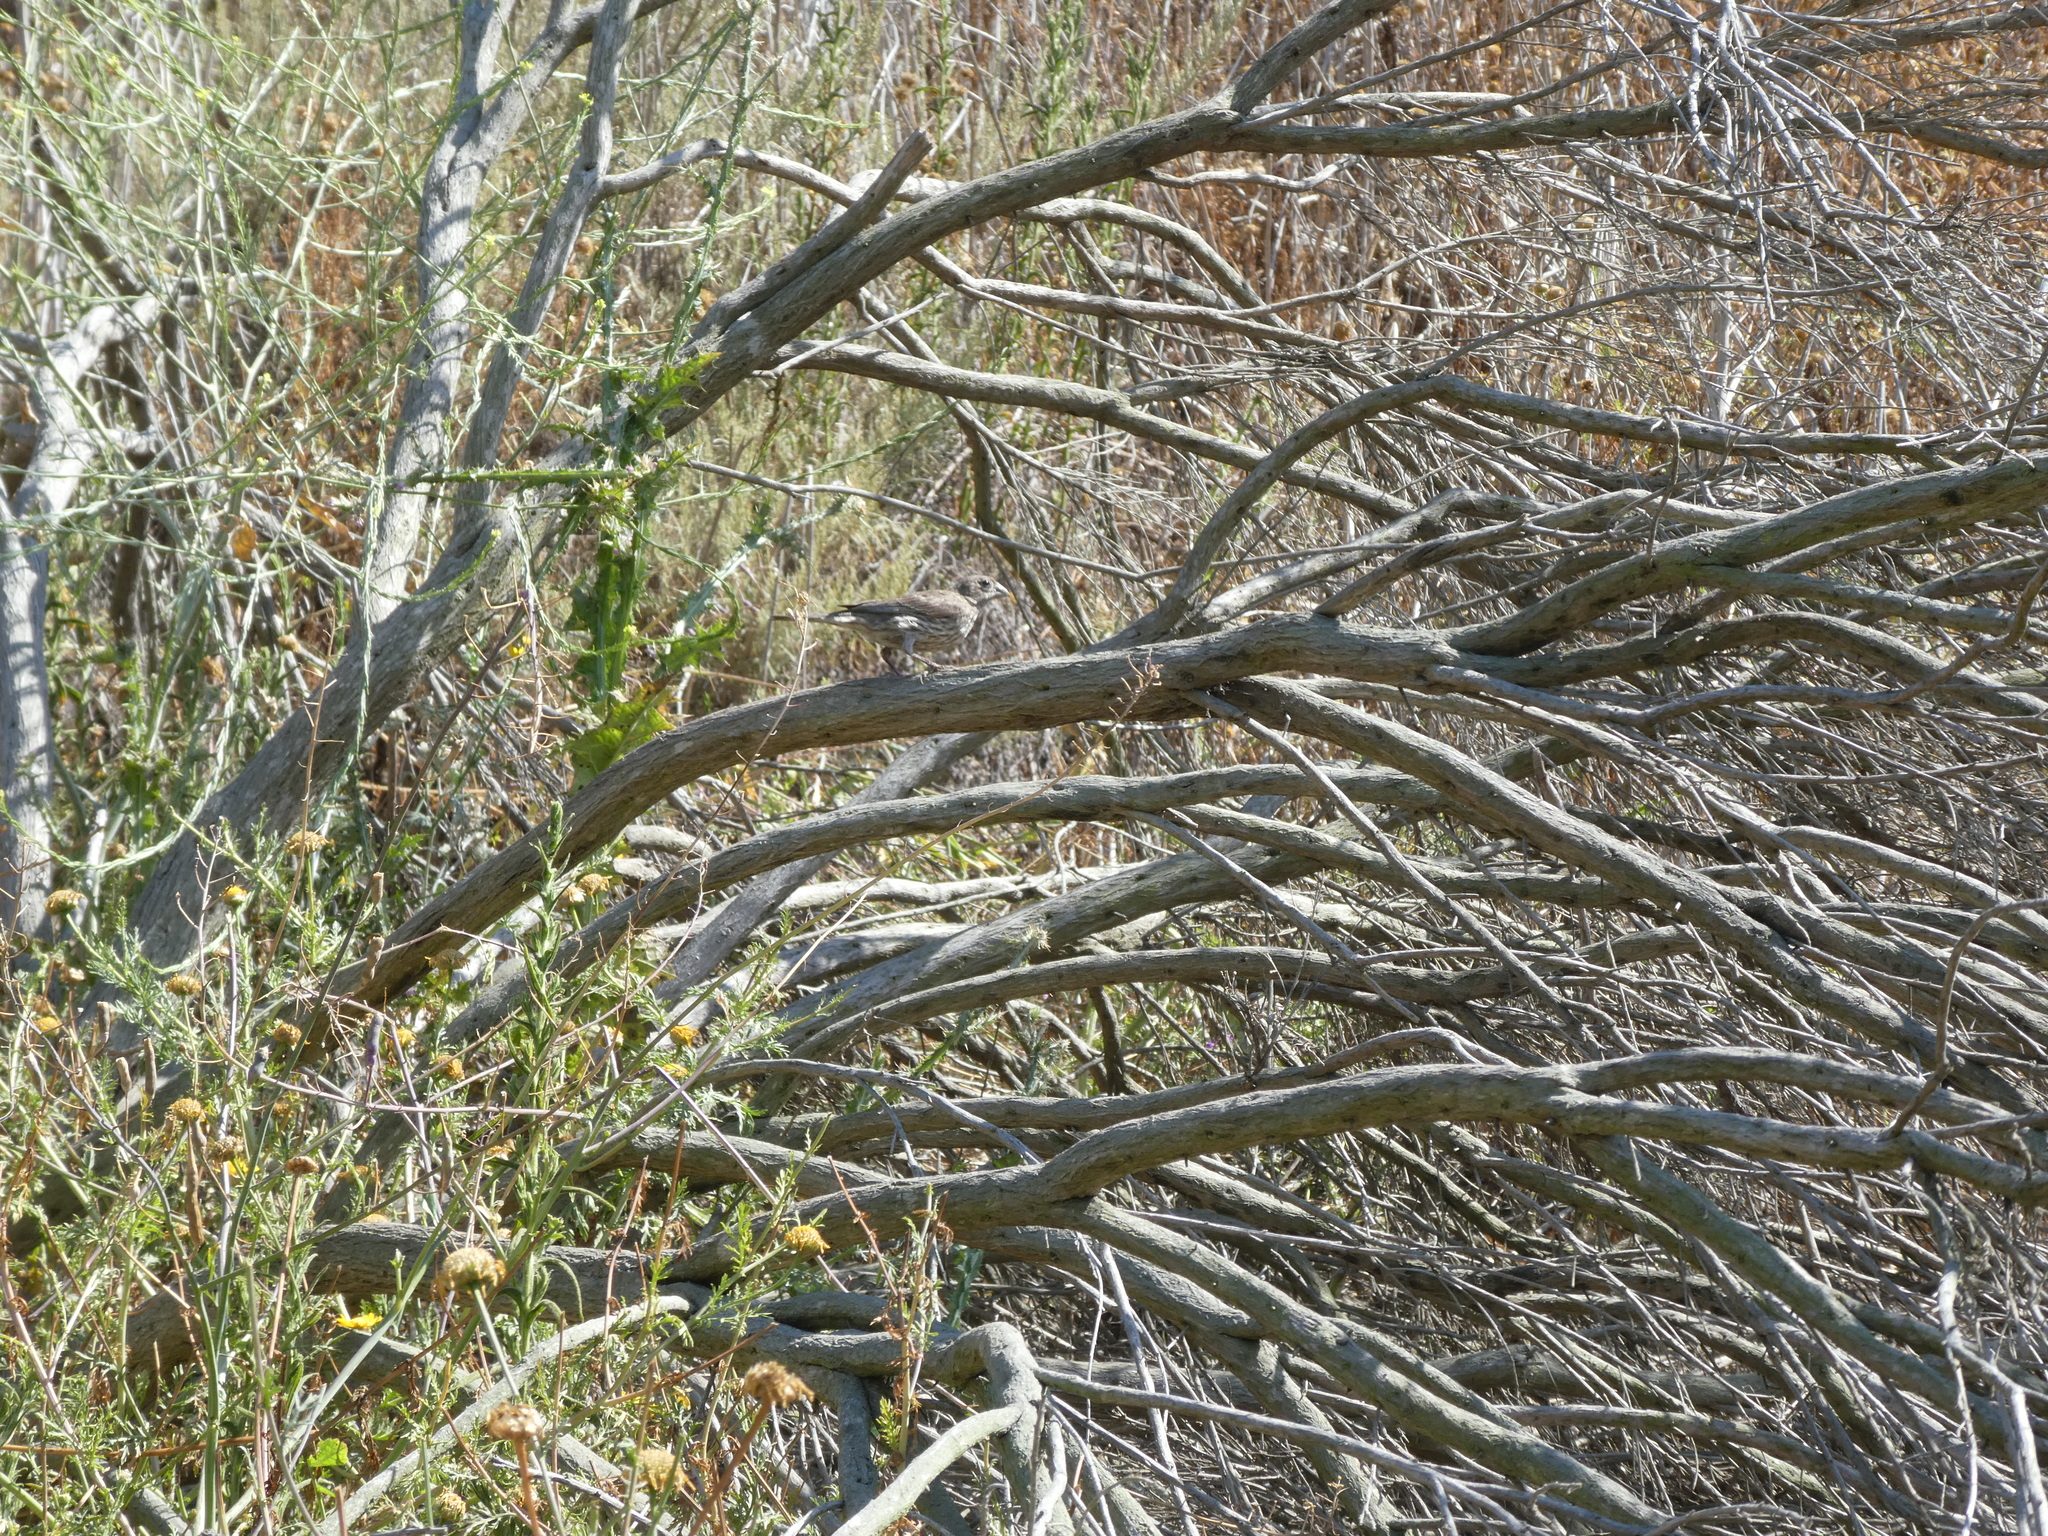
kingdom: Animalia
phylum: Chordata
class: Aves
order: Passeriformes
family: Fringillidae
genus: Haemorhous
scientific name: Haemorhous mexicanus
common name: House finch
